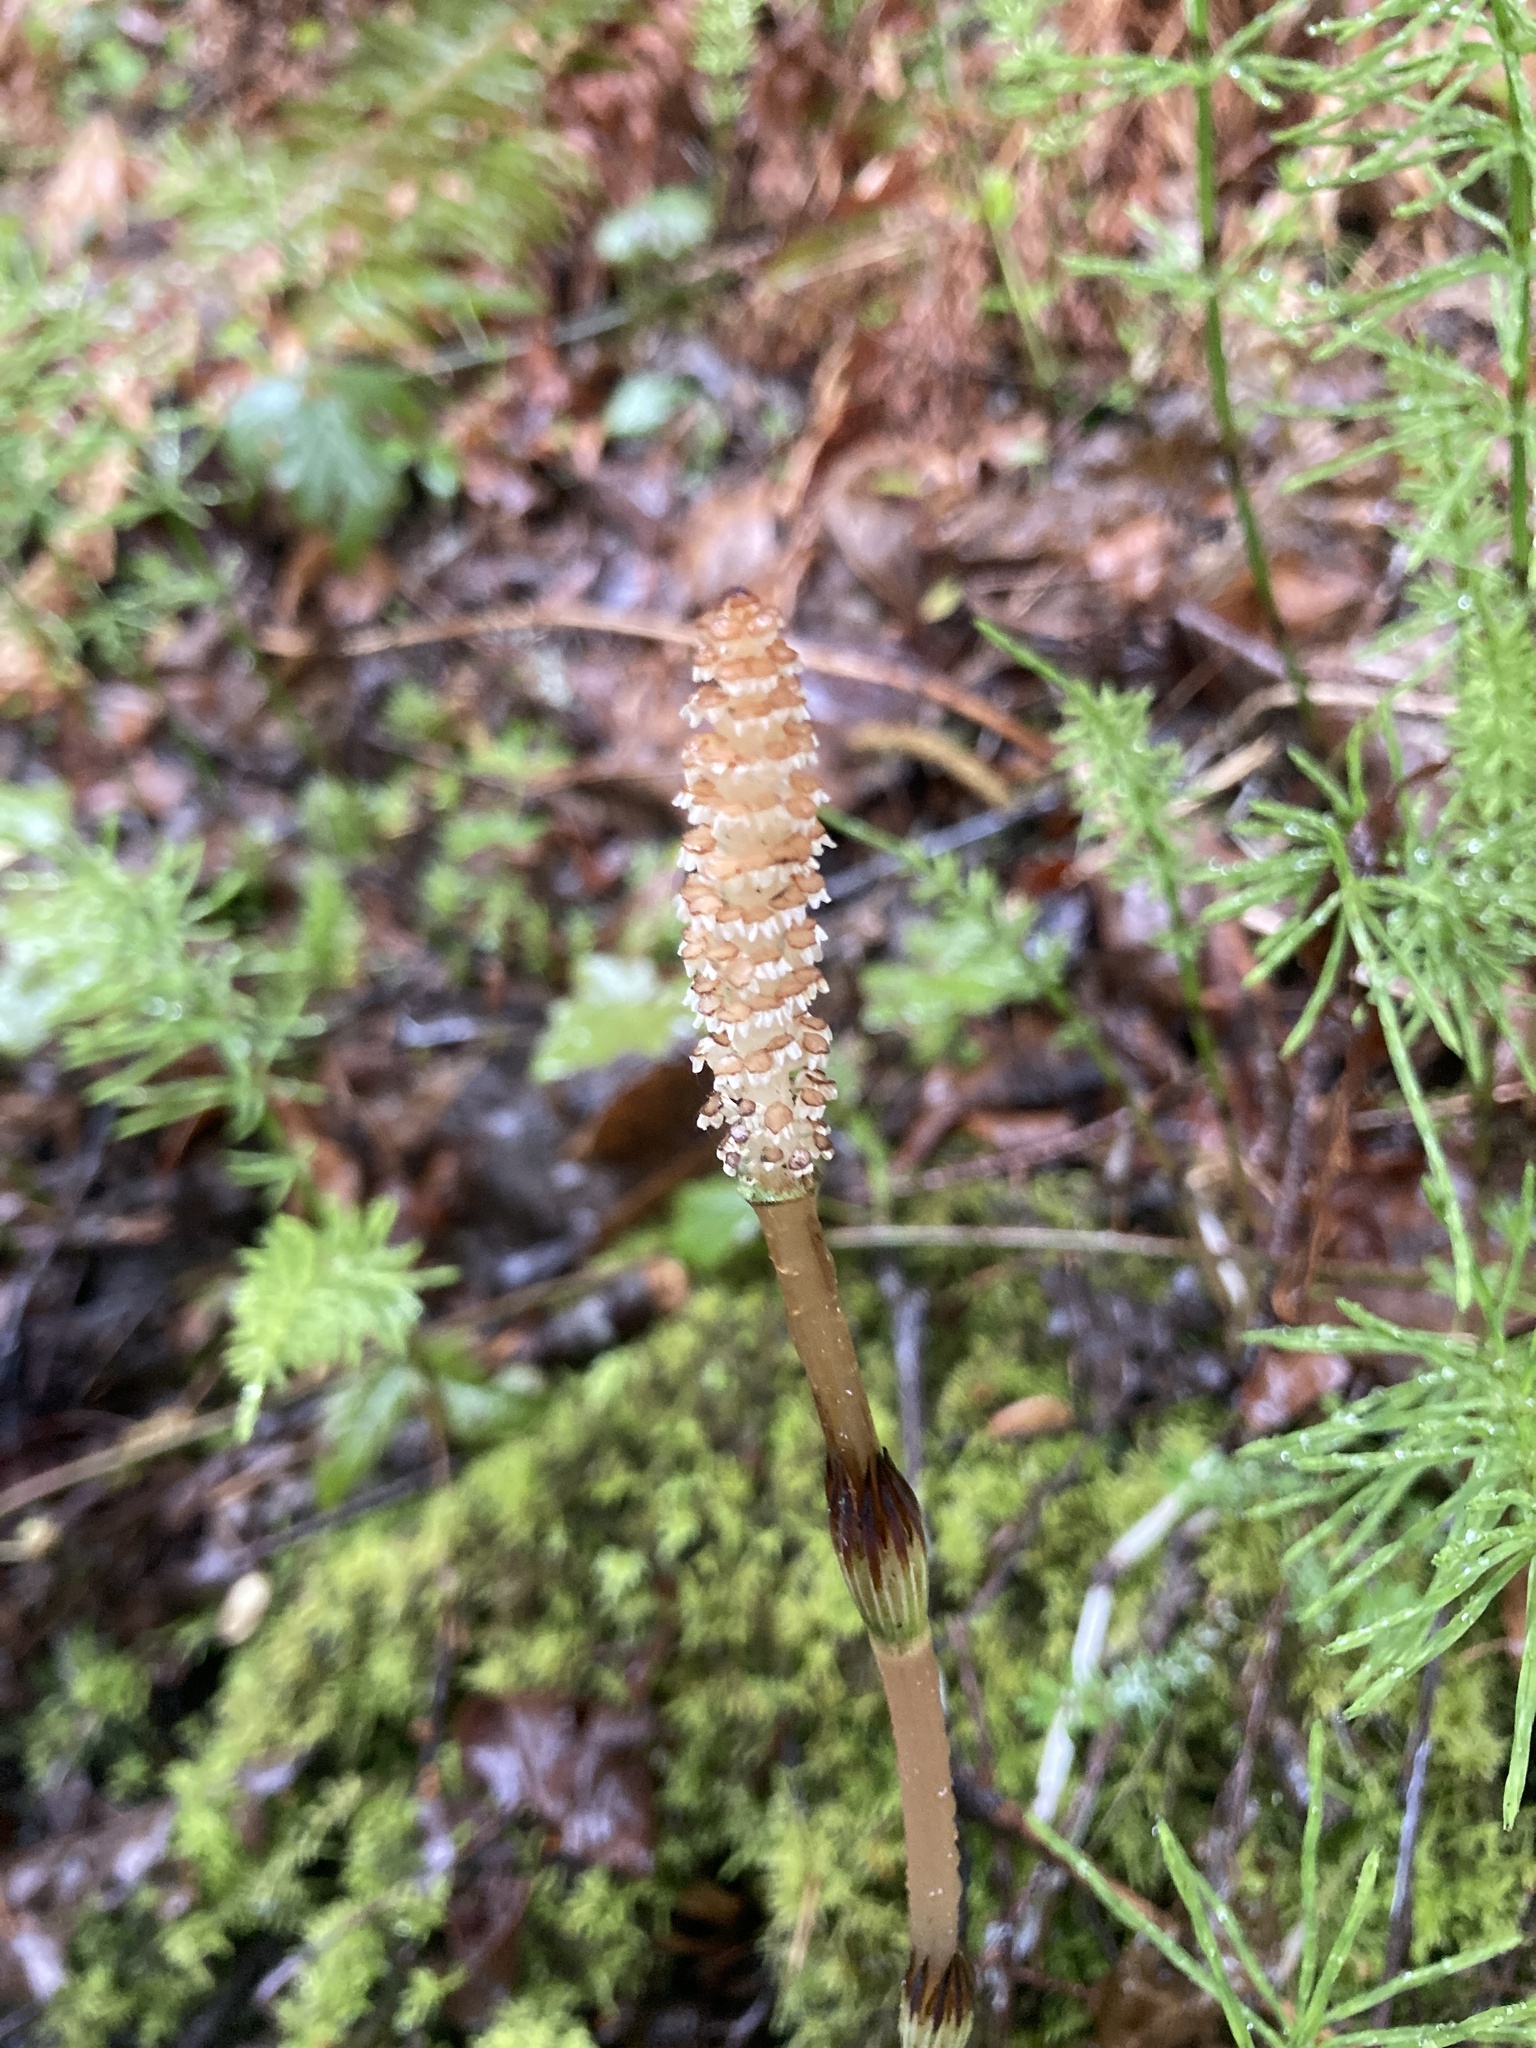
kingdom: Plantae
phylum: Tracheophyta
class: Polypodiopsida
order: Equisetales
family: Equisetaceae
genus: Equisetum
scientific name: Equisetum arvense
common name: Field horsetail
